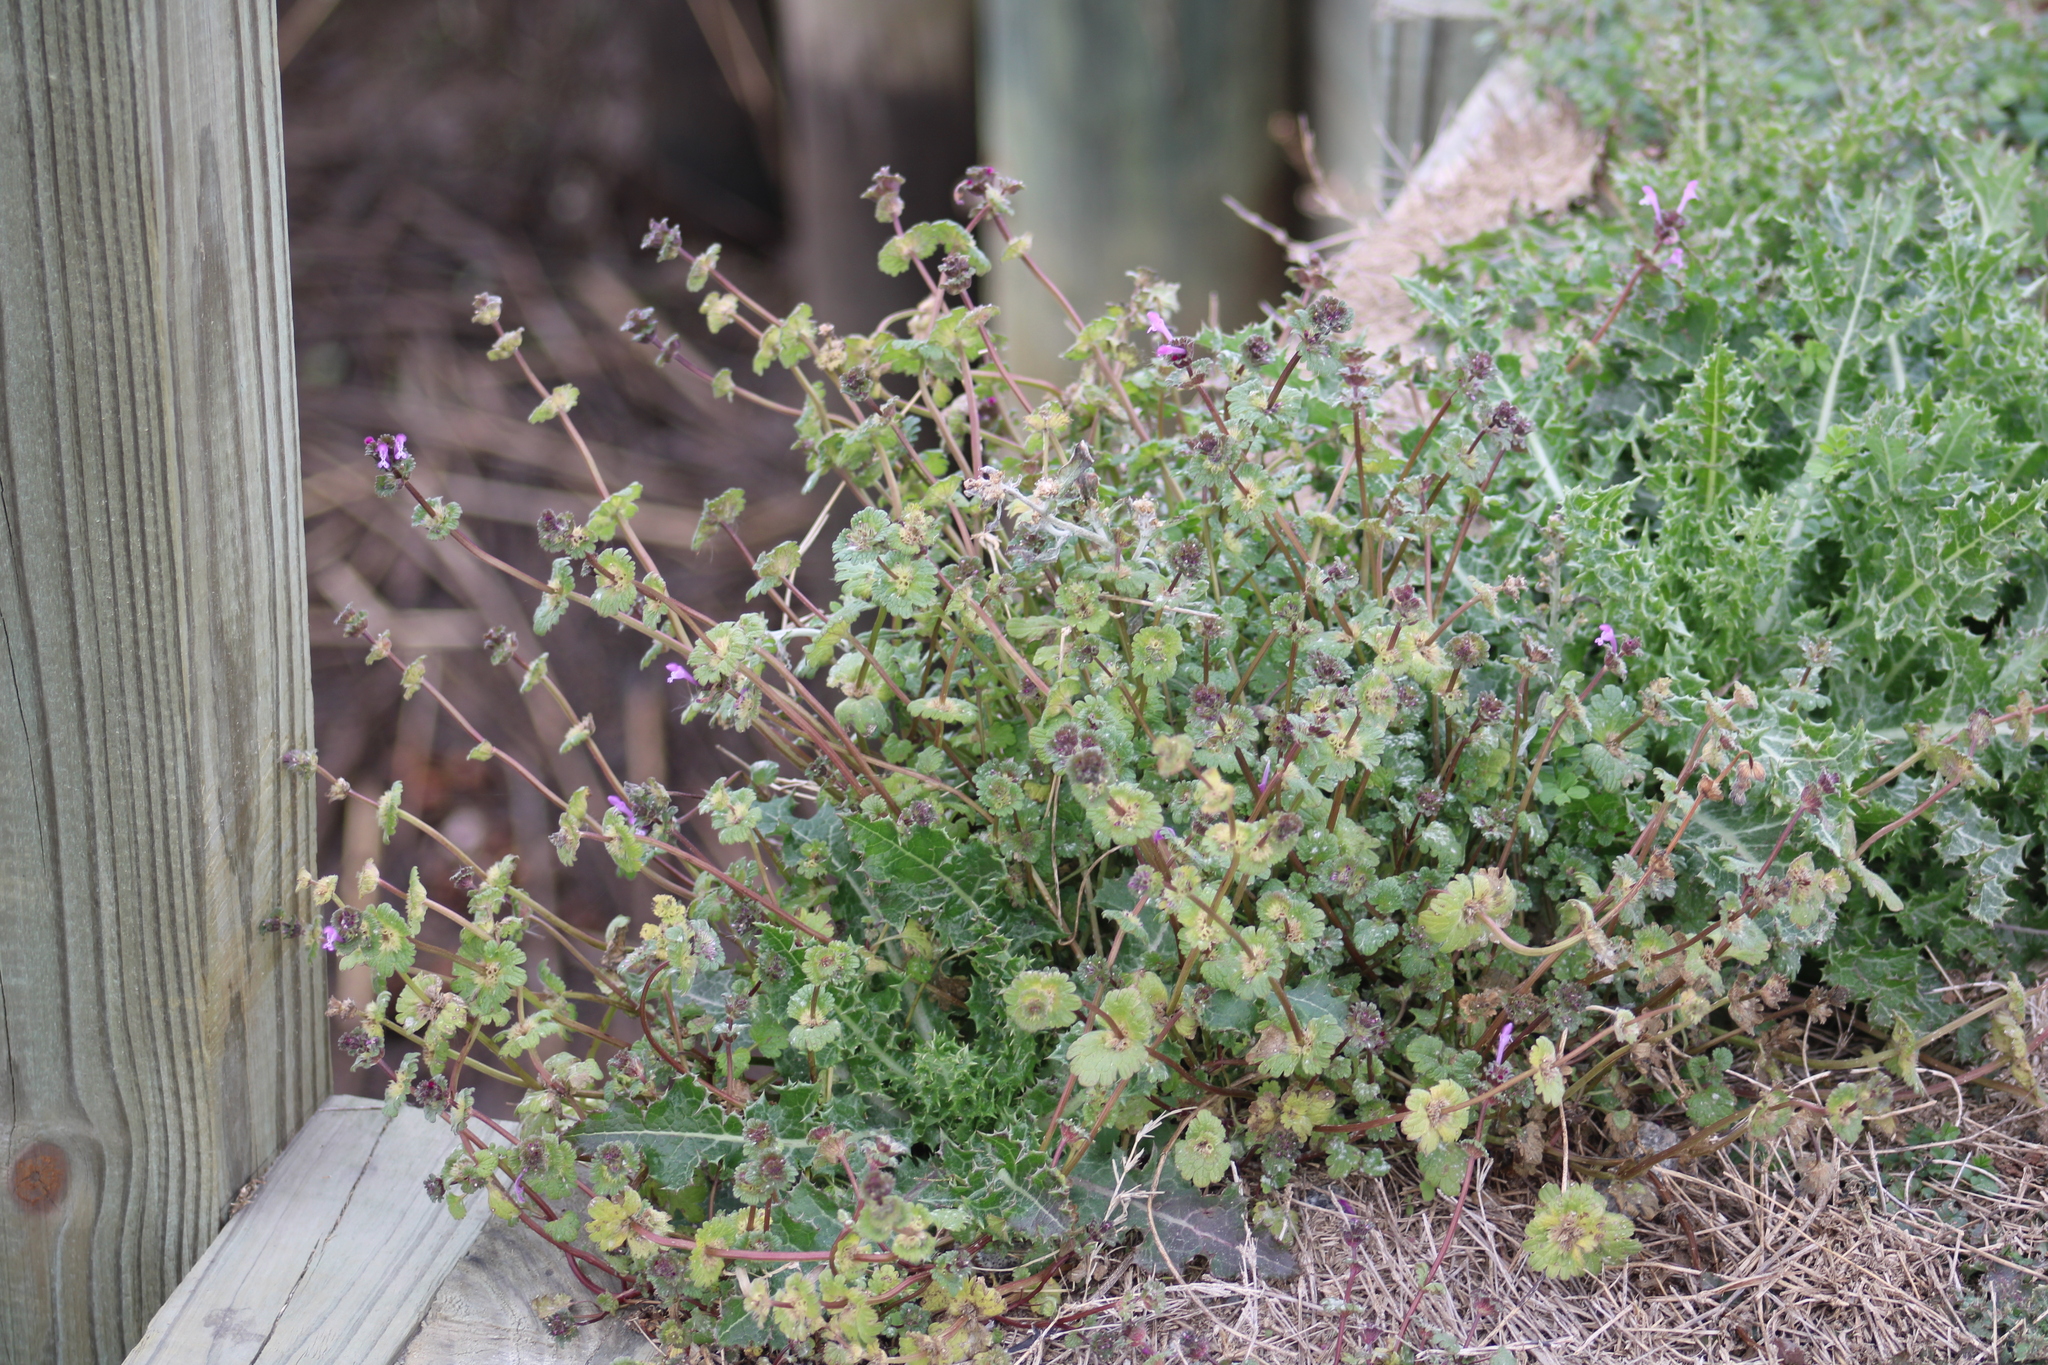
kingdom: Plantae
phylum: Tracheophyta
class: Magnoliopsida
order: Lamiales
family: Lamiaceae
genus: Lamium
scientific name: Lamium amplexicaule
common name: Henbit dead-nettle
